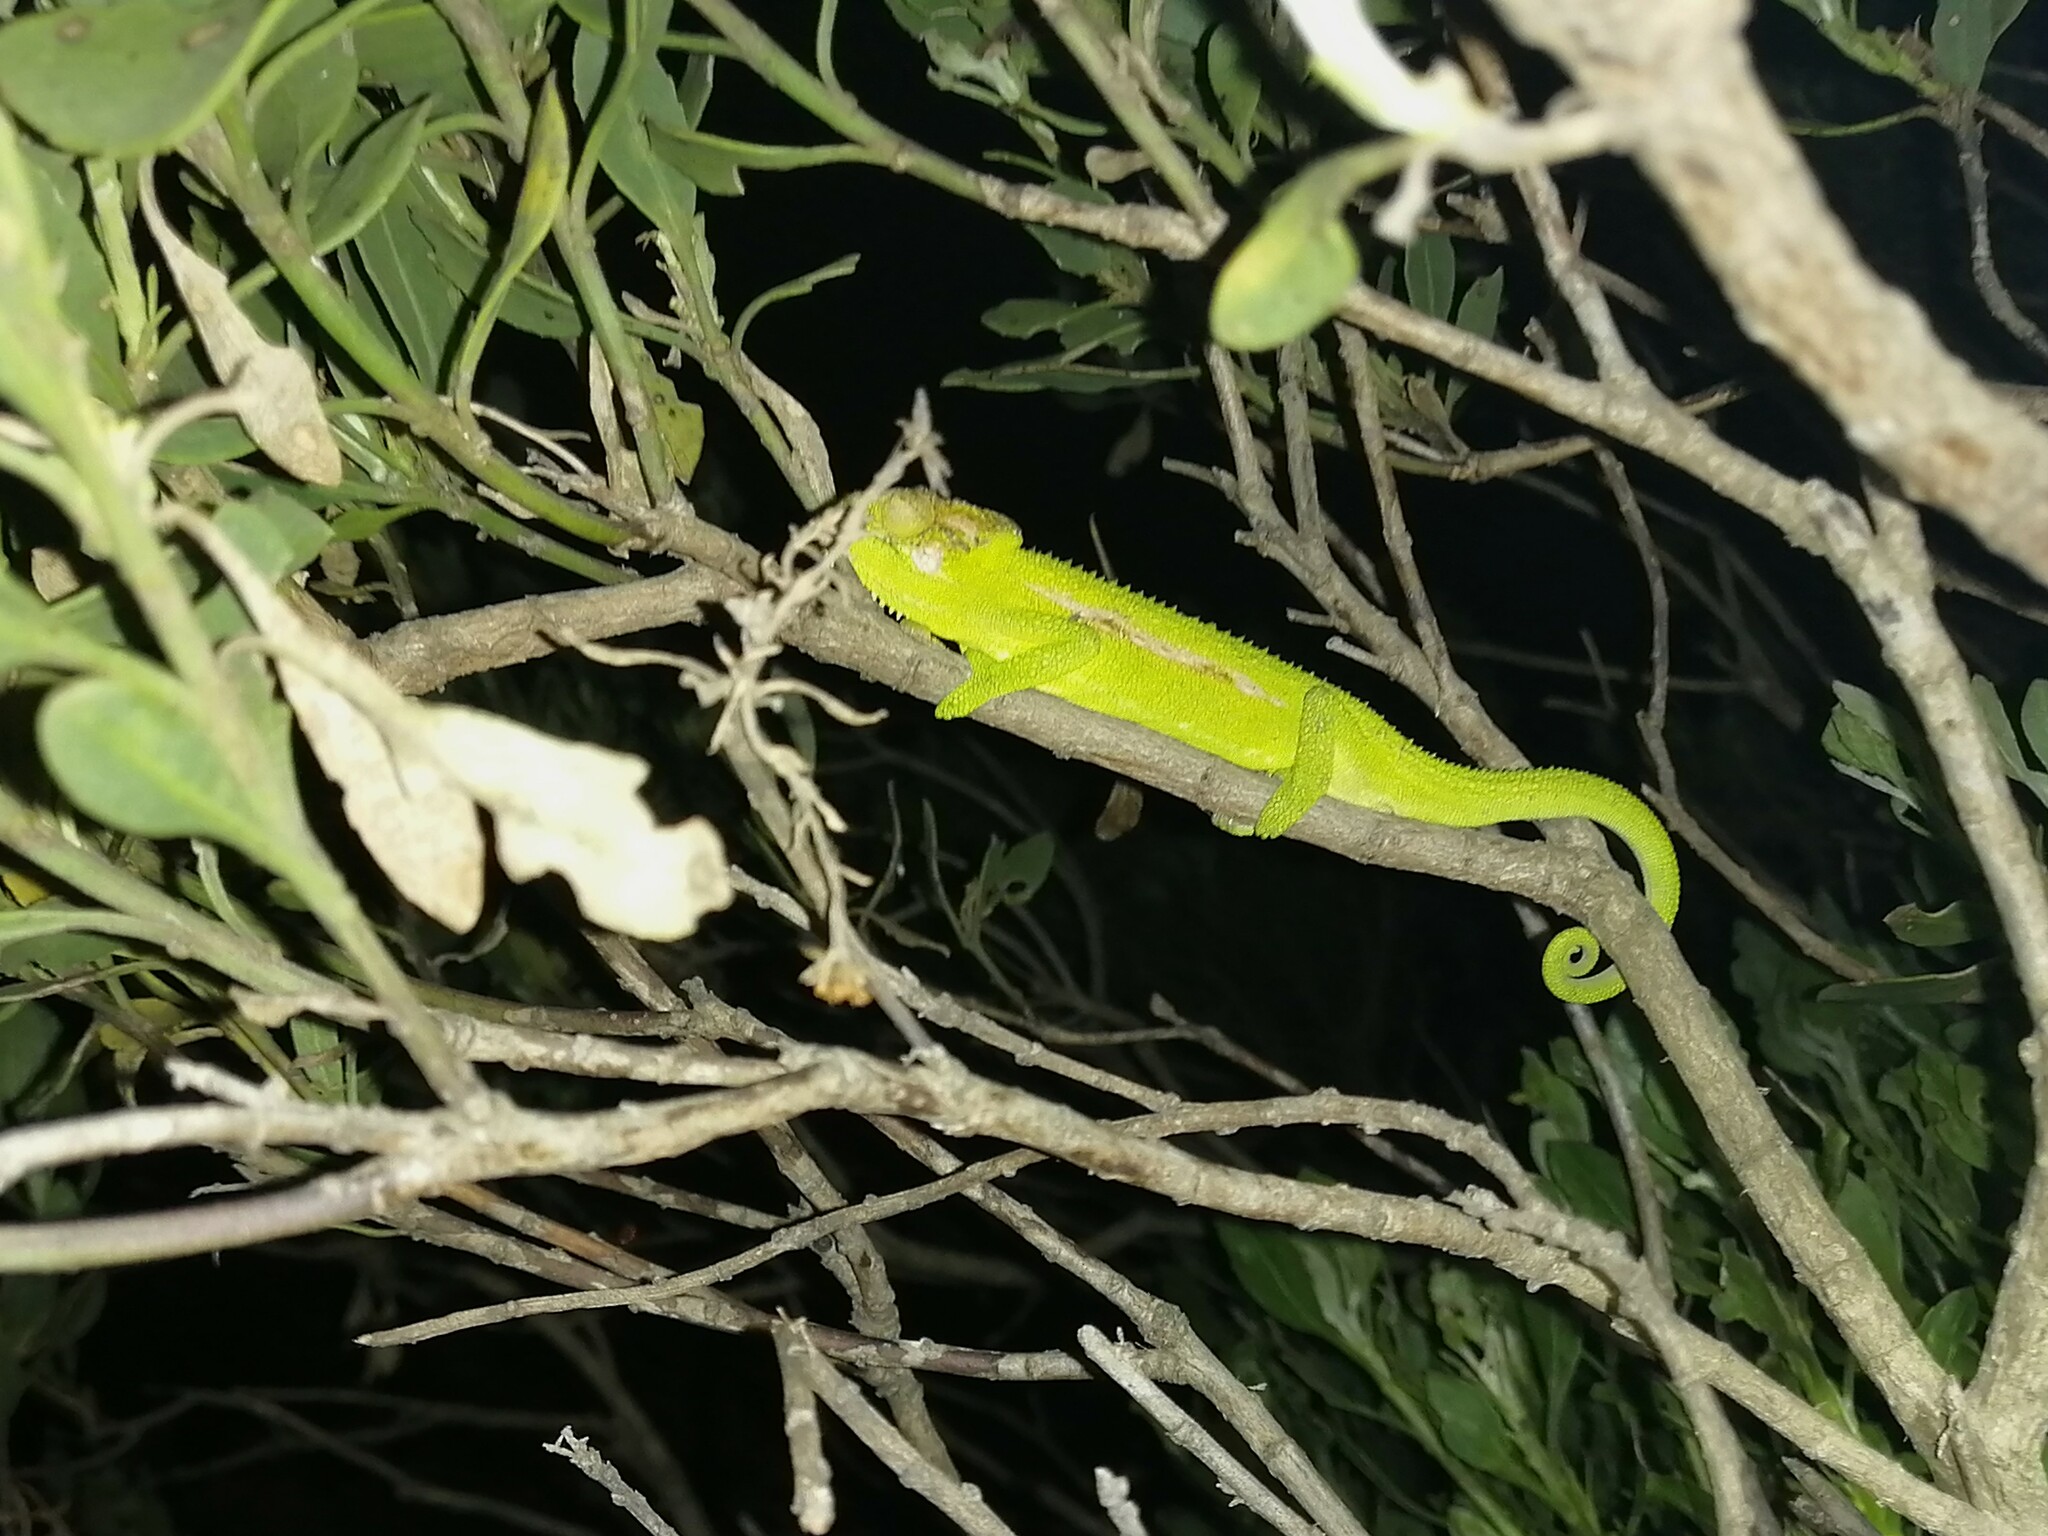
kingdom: Animalia
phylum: Chordata
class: Squamata
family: Chamaeleonidae
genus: Bradypodion
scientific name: Bradypodion pumilum
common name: Cape dwarf chameleon
